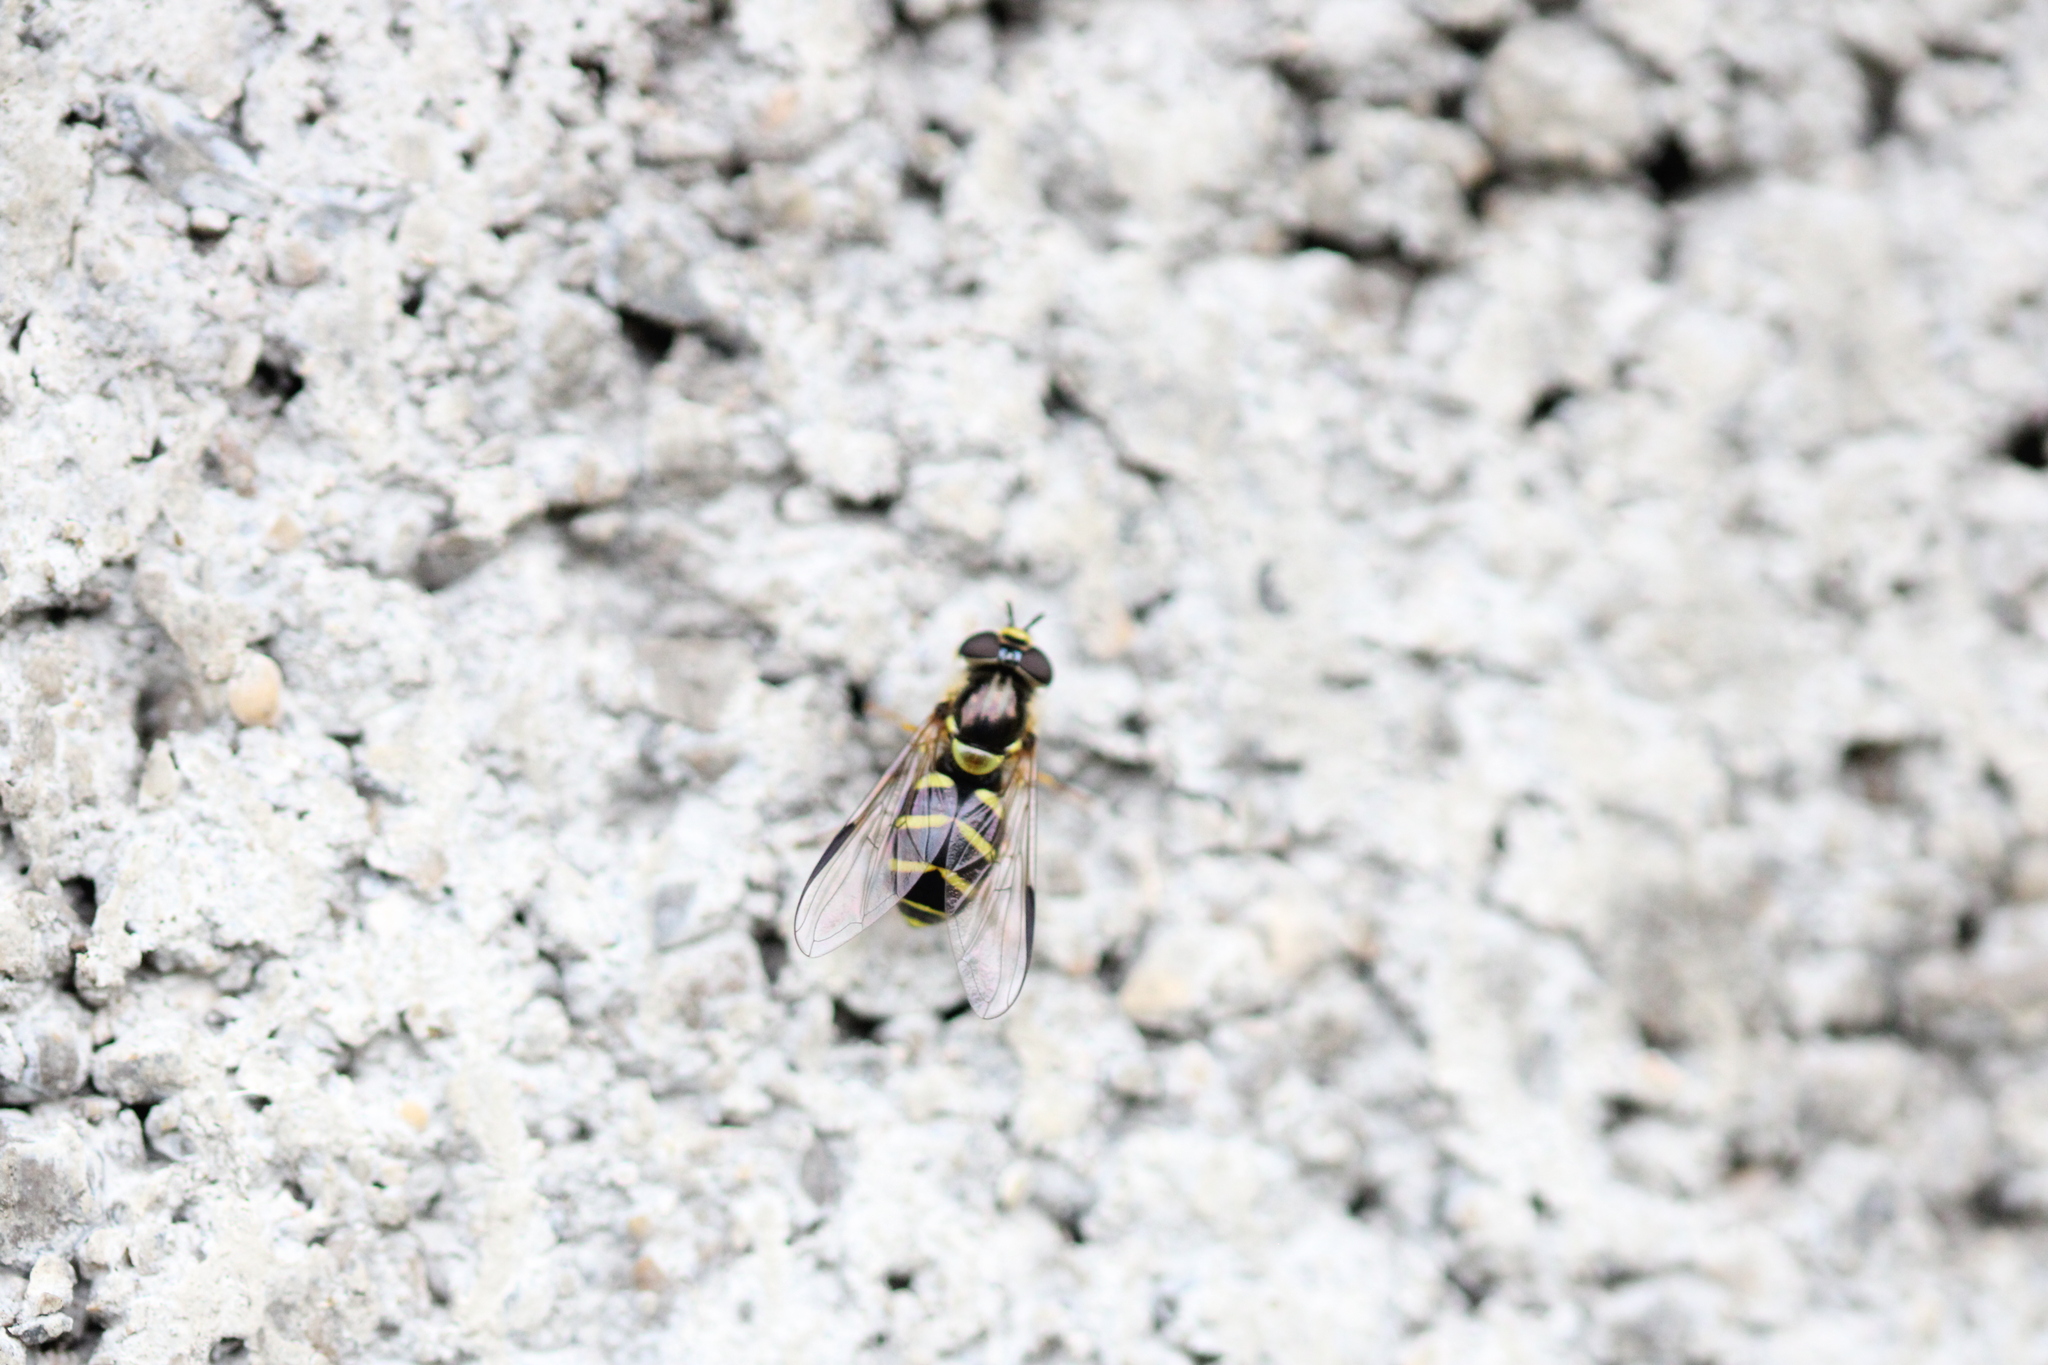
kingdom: Animalia
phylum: Arthropoda
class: Insecta
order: Diptera
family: Syrphidae
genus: Dasysyrphus
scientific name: Dasysyrphus albostriatus
